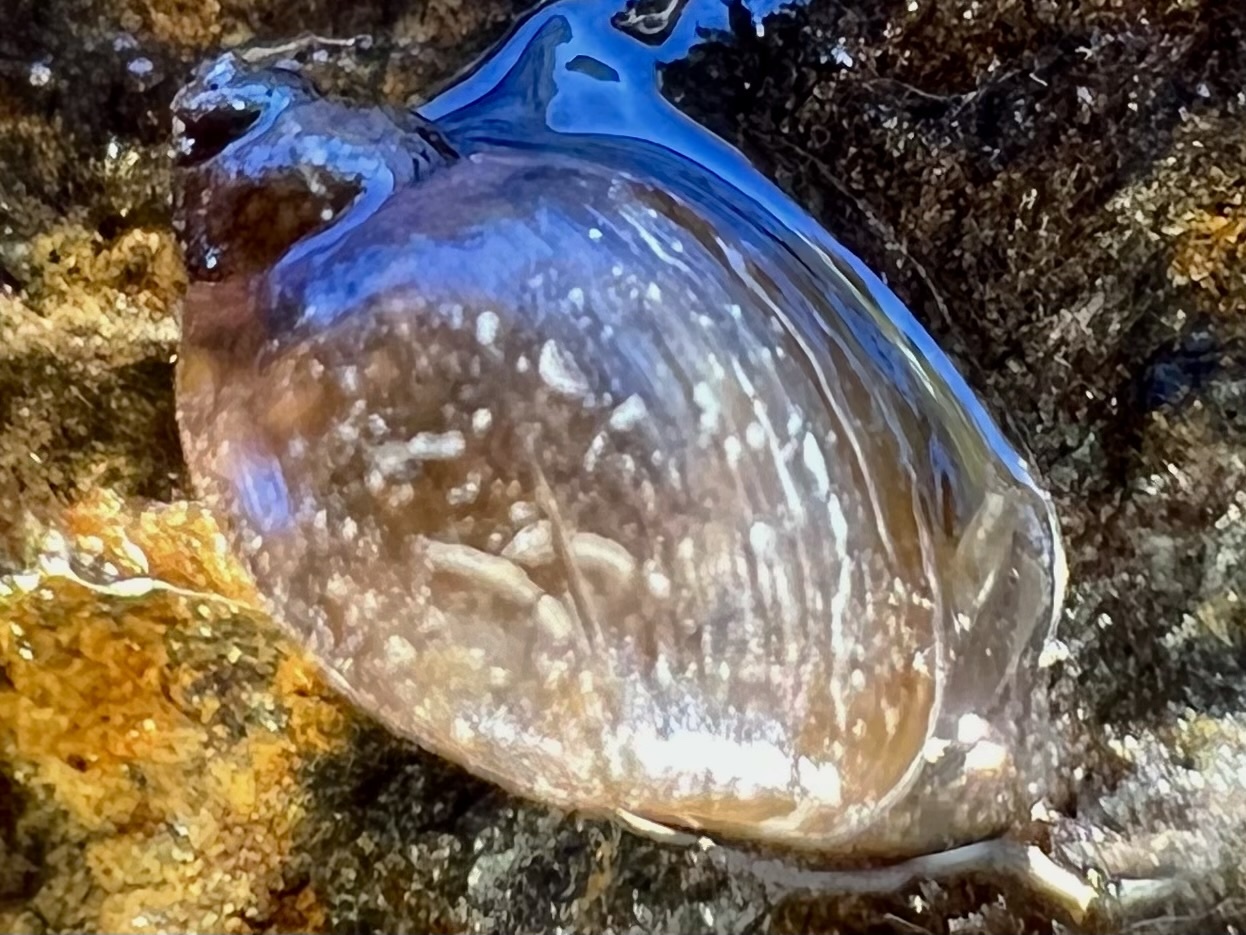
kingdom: Animalia
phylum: Mollusca
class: Gastropoda
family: Physidae
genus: Physella
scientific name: Physella acuta
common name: European physa
